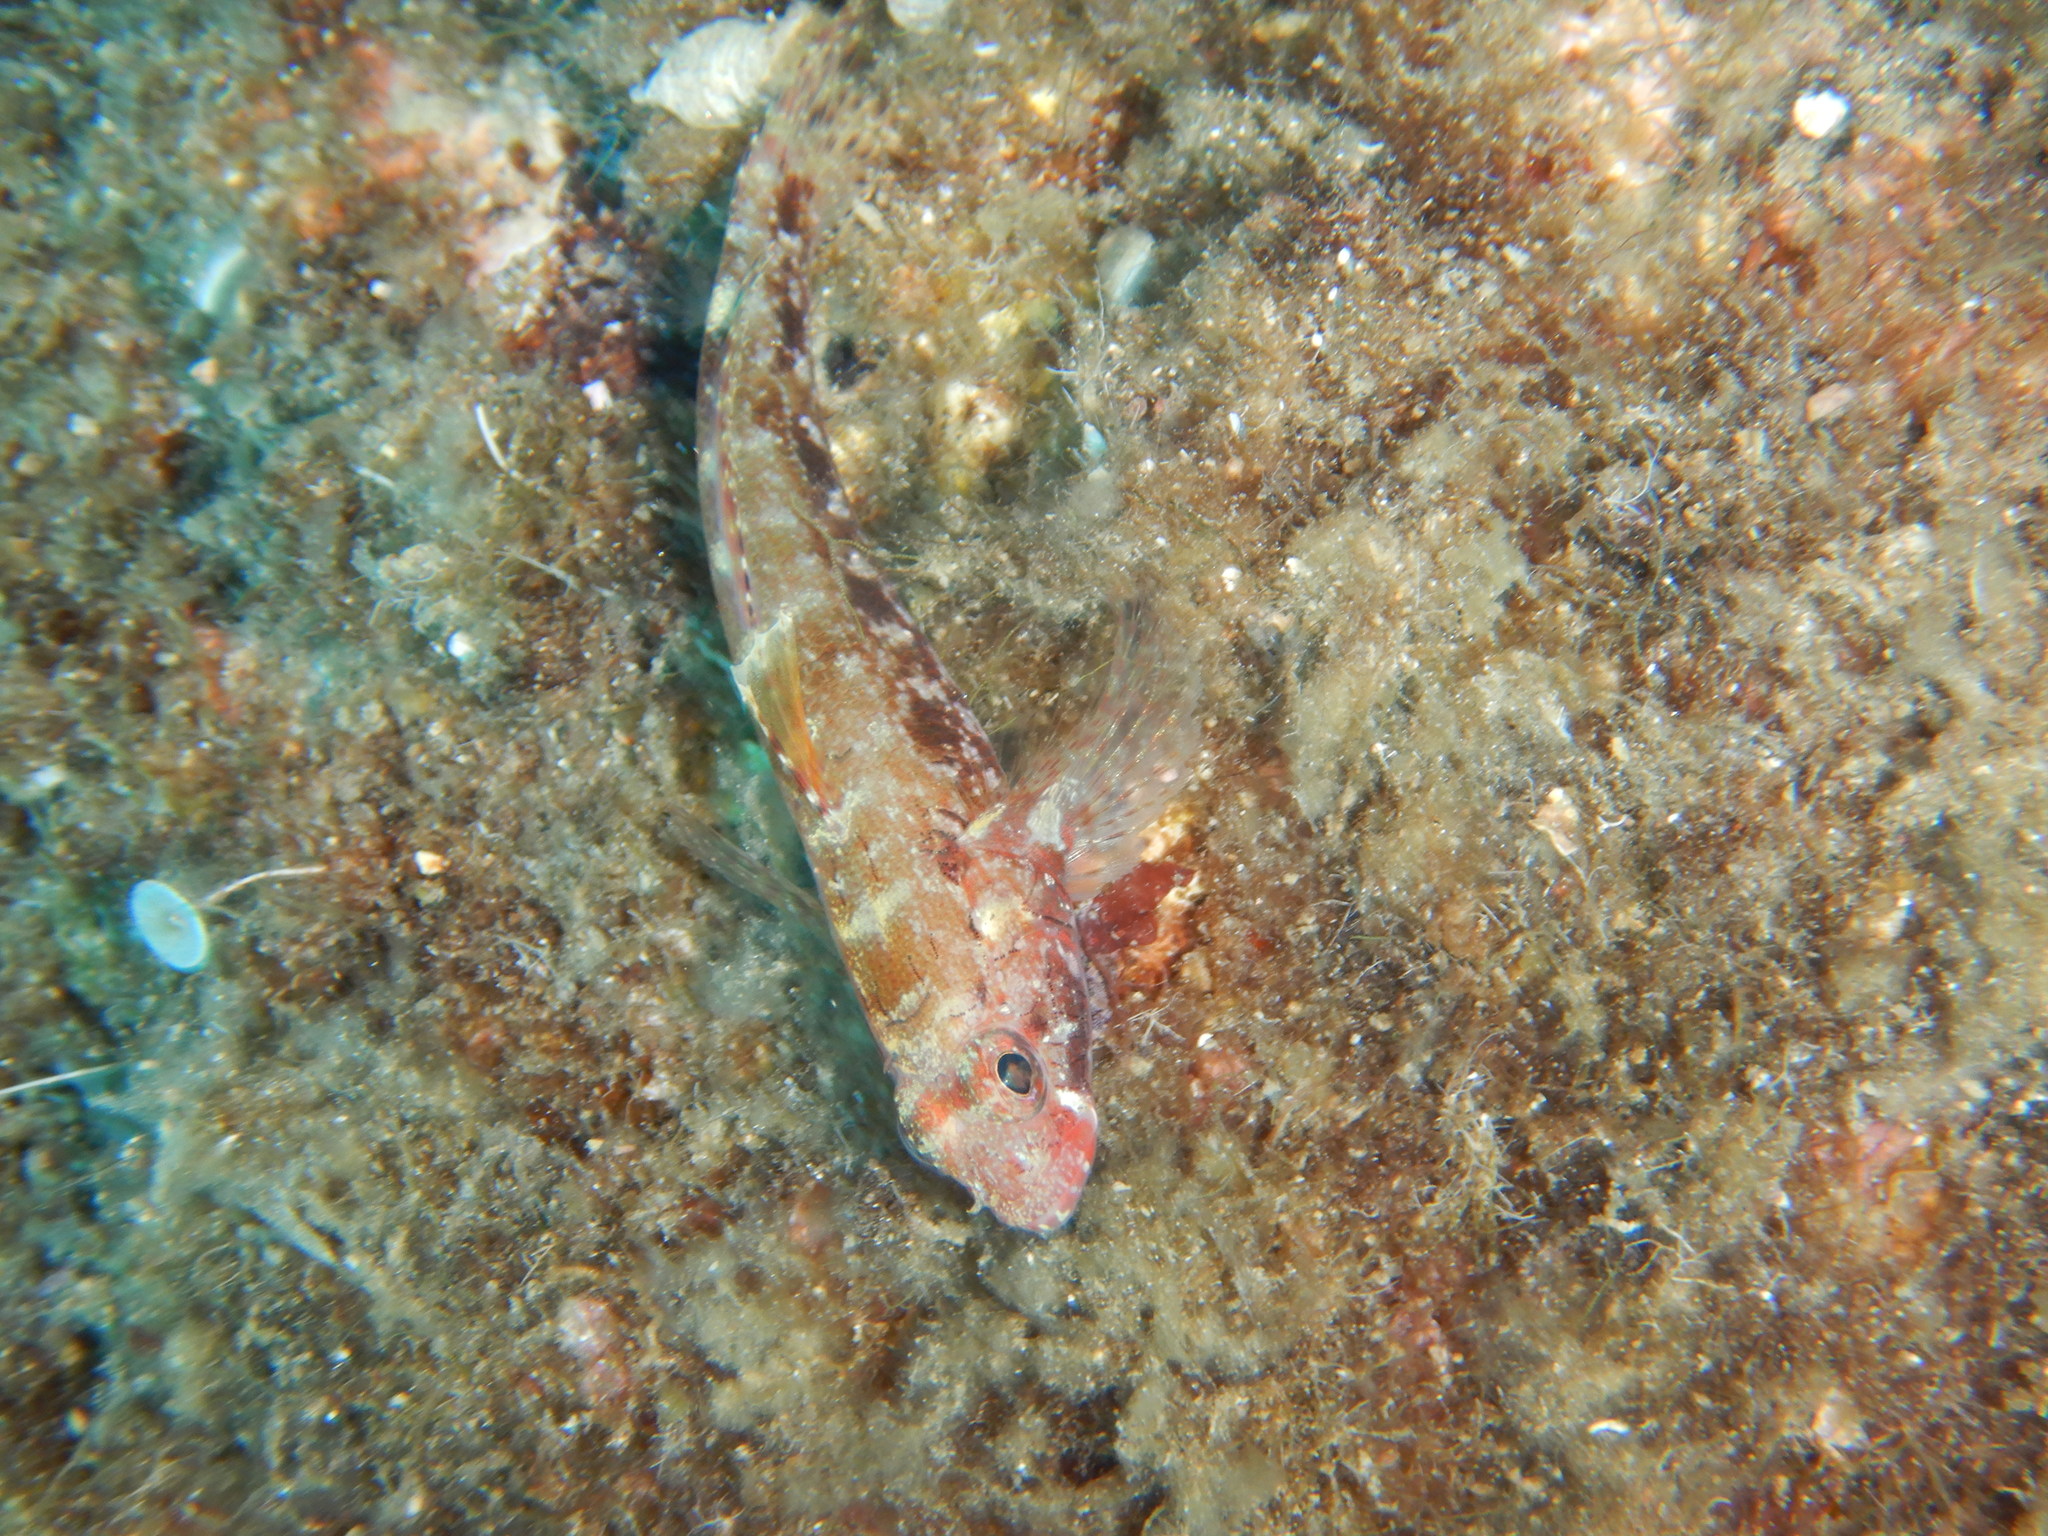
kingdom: Animalia
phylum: Chordata
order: Perciformes
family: Gobiidae
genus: Gobius
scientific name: Gobius cruentatus
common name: Red-mouthed goby
